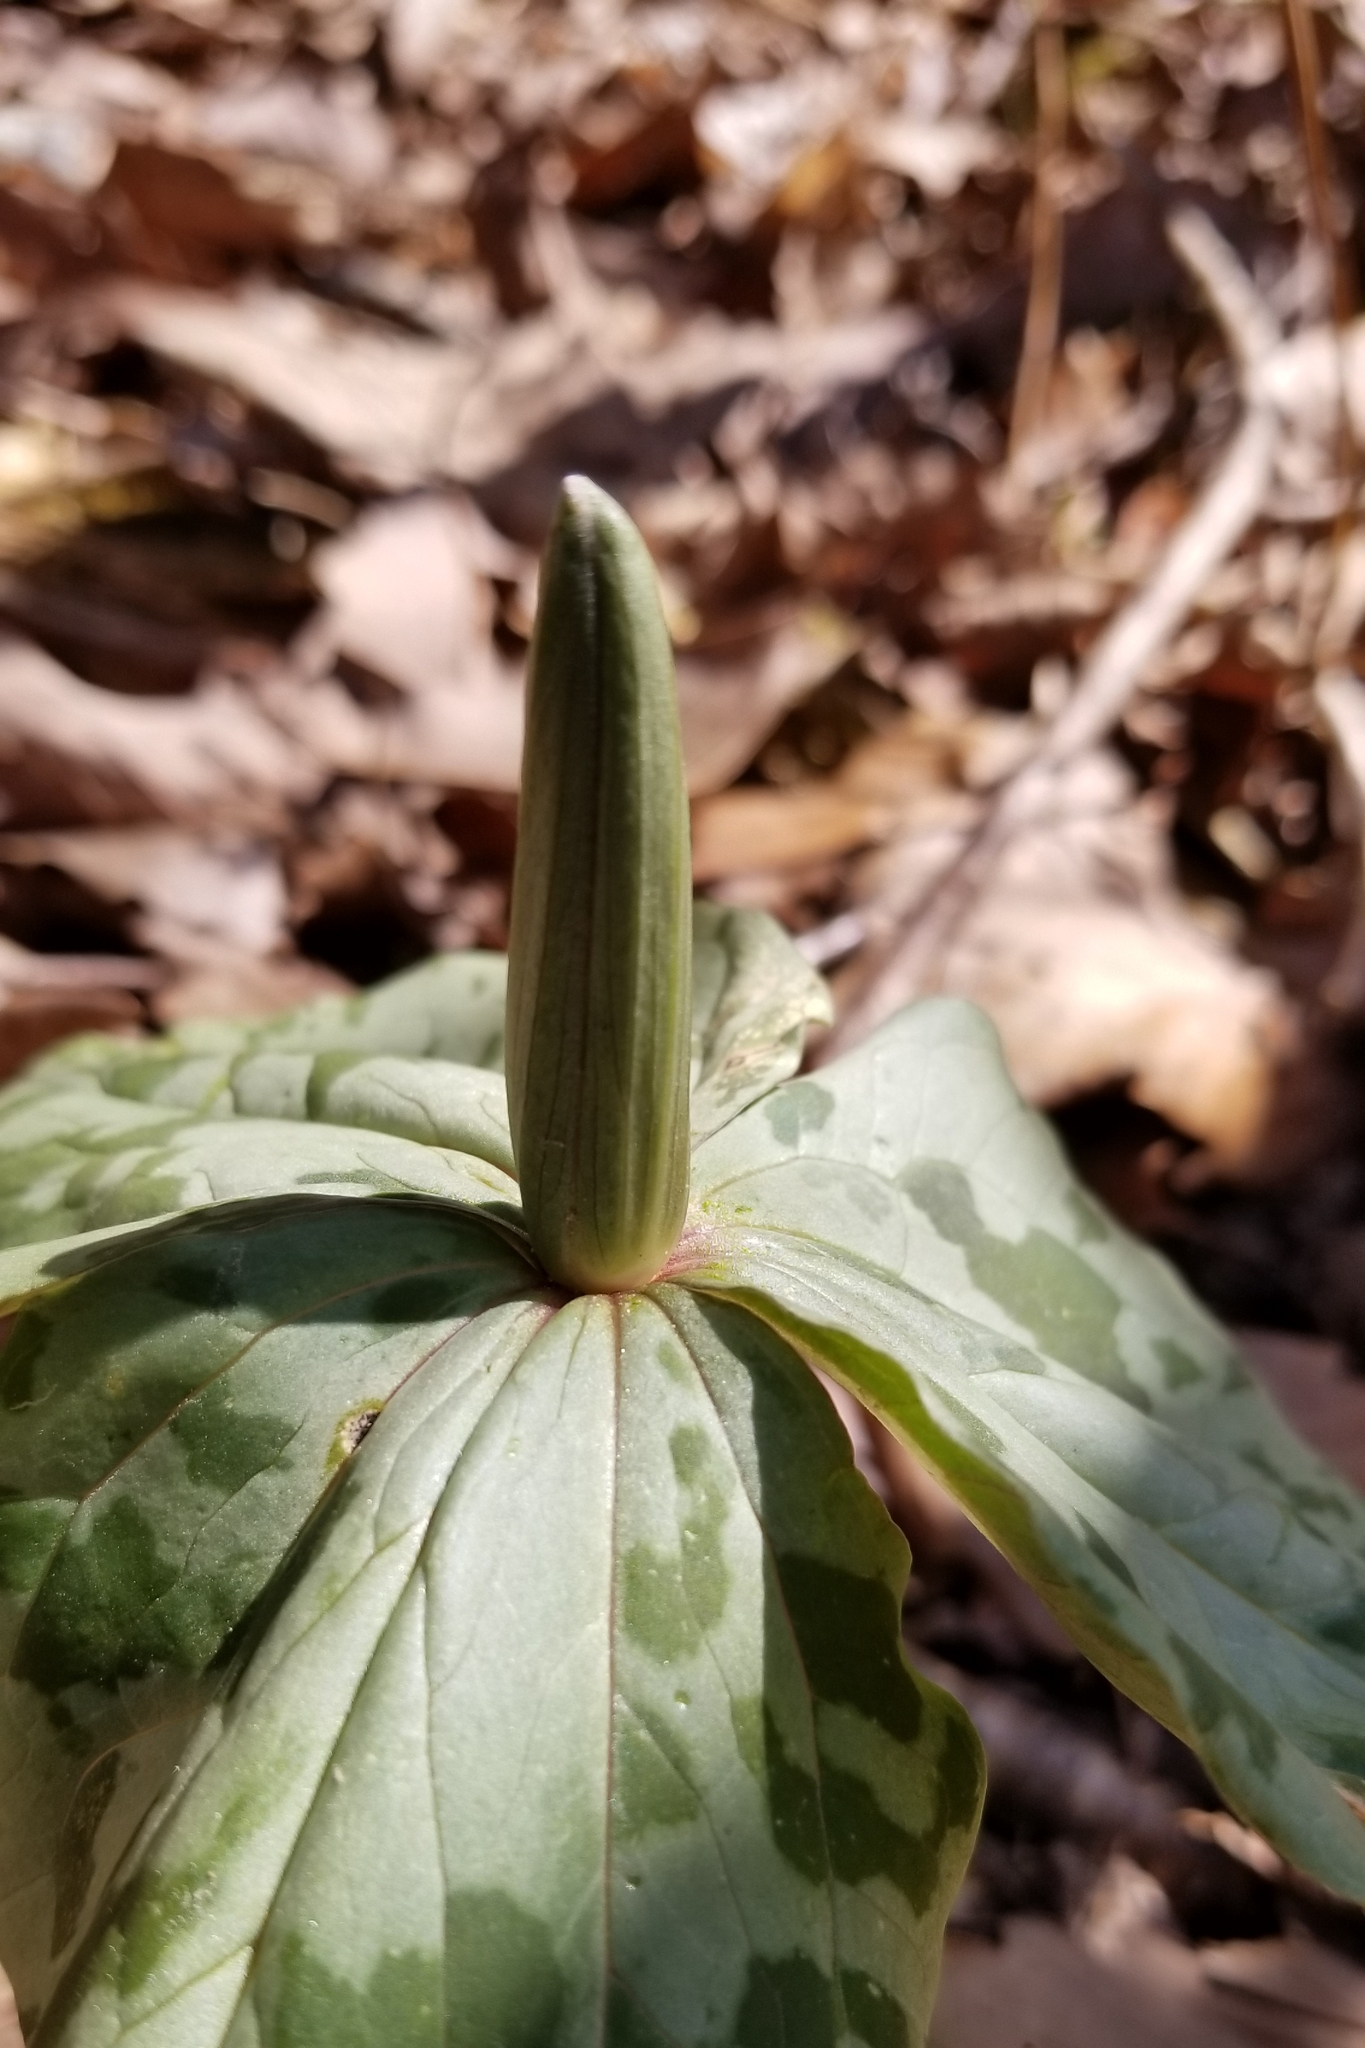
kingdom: Plantae
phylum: Tracheophyta
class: Liliopsida
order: Liliales
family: Melanthiaceae
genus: Trillium
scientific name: Trillium cuneatum
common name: Cuneate trillium
